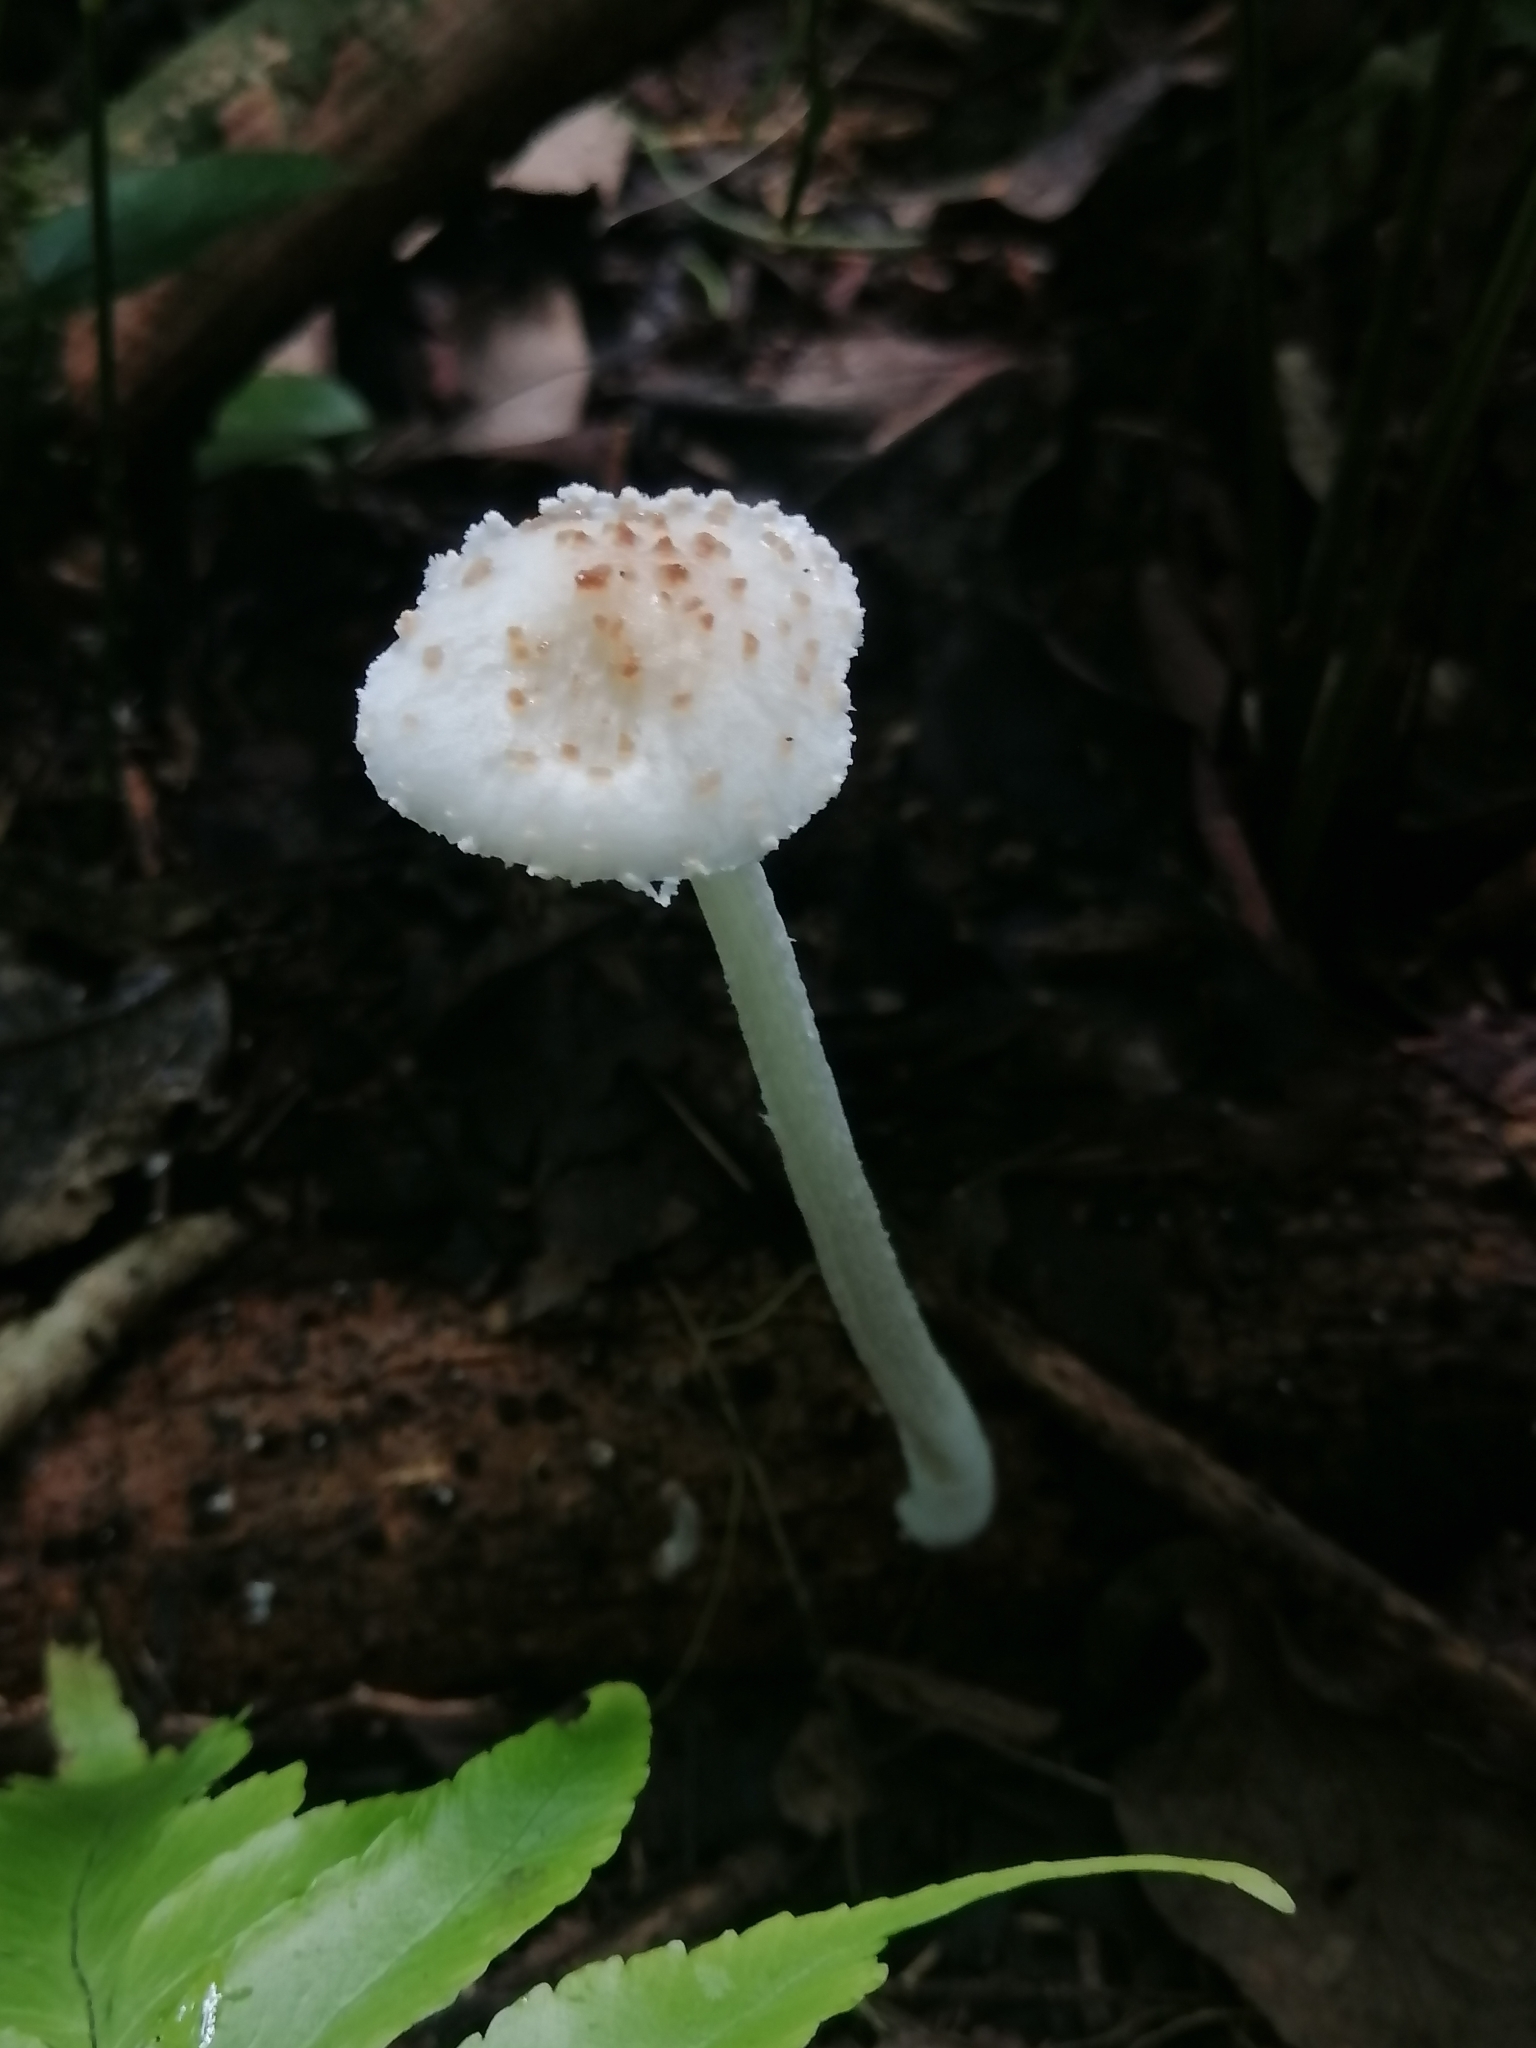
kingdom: Fungi
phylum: Basidiomycota
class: Agaricomycetes
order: Agaricales
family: Physalacriaceae
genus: Oudemansiella
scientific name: Oudemansiella canarii
